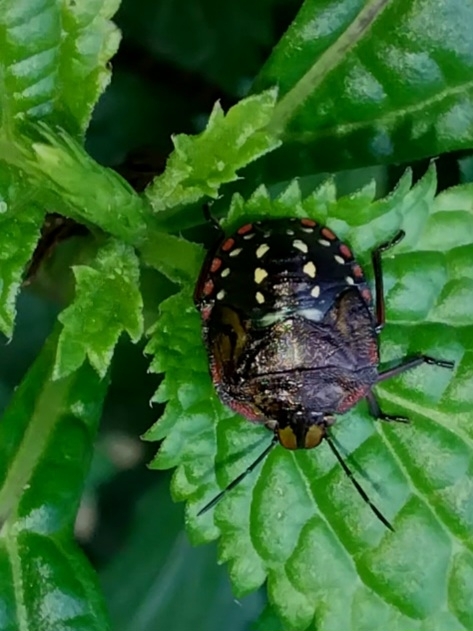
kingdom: Animalia
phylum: Arthropoda
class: Insecta
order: Hemiptera
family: Pentatomidae
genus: Nezara
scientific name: Nezara viridula
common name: Southern green stink bug
